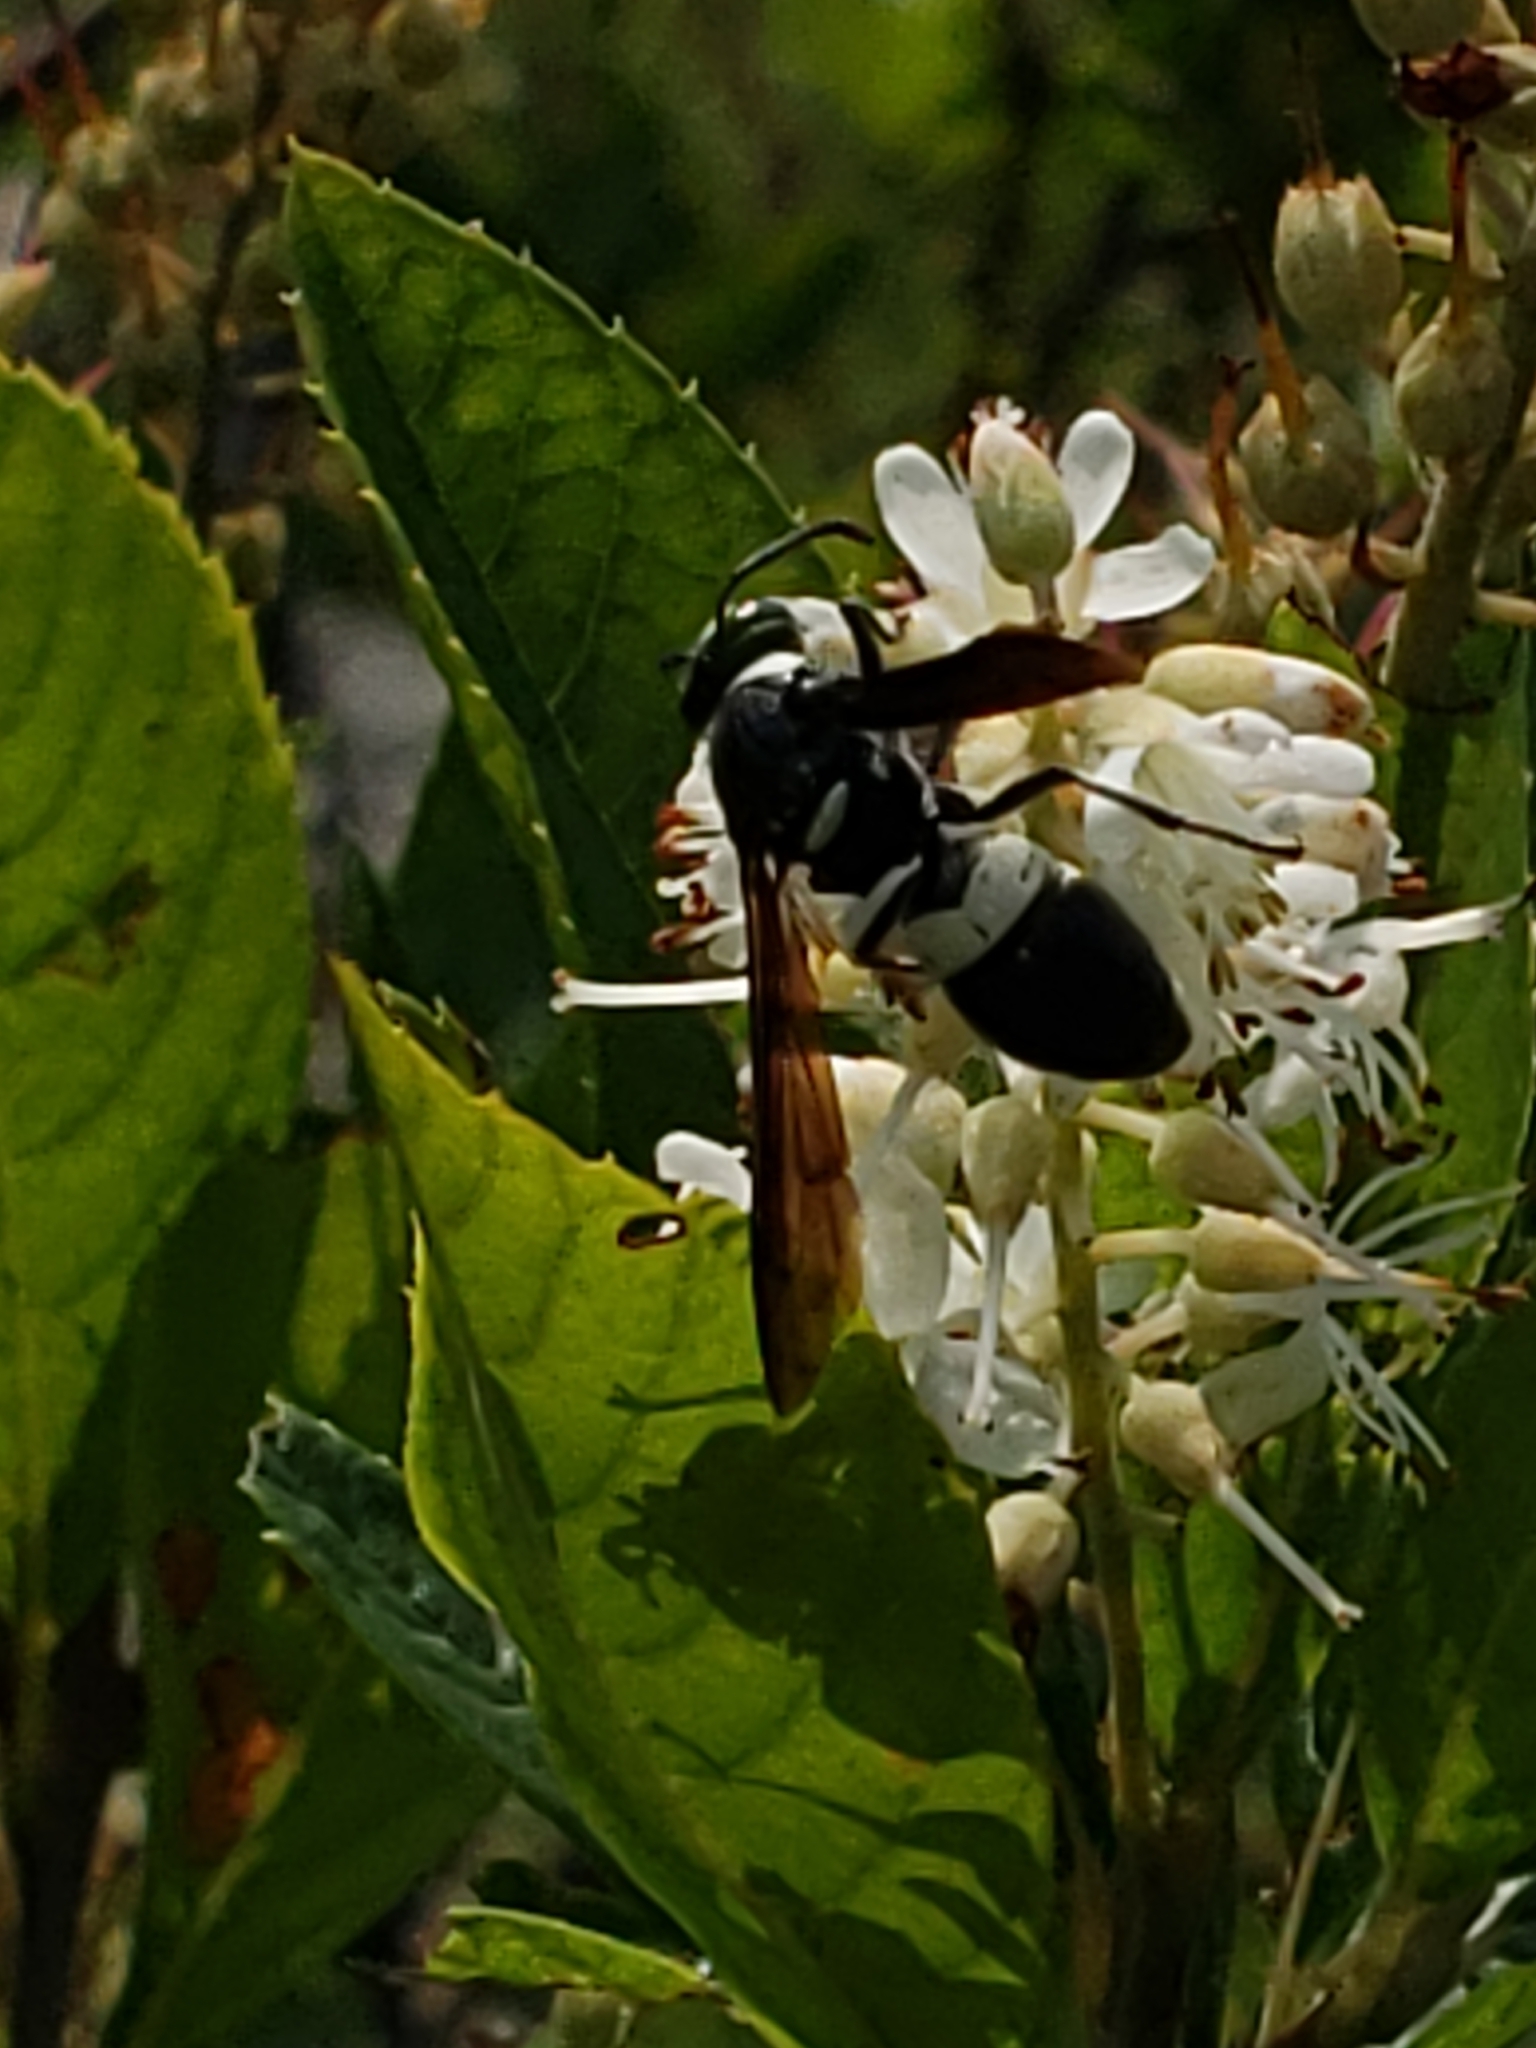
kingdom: Animalia
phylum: Arthropoda
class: Insecta
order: Hymenoptera
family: Eumenidae
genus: Monobia
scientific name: Monobia quadridens
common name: Four-toothed mason wasp
